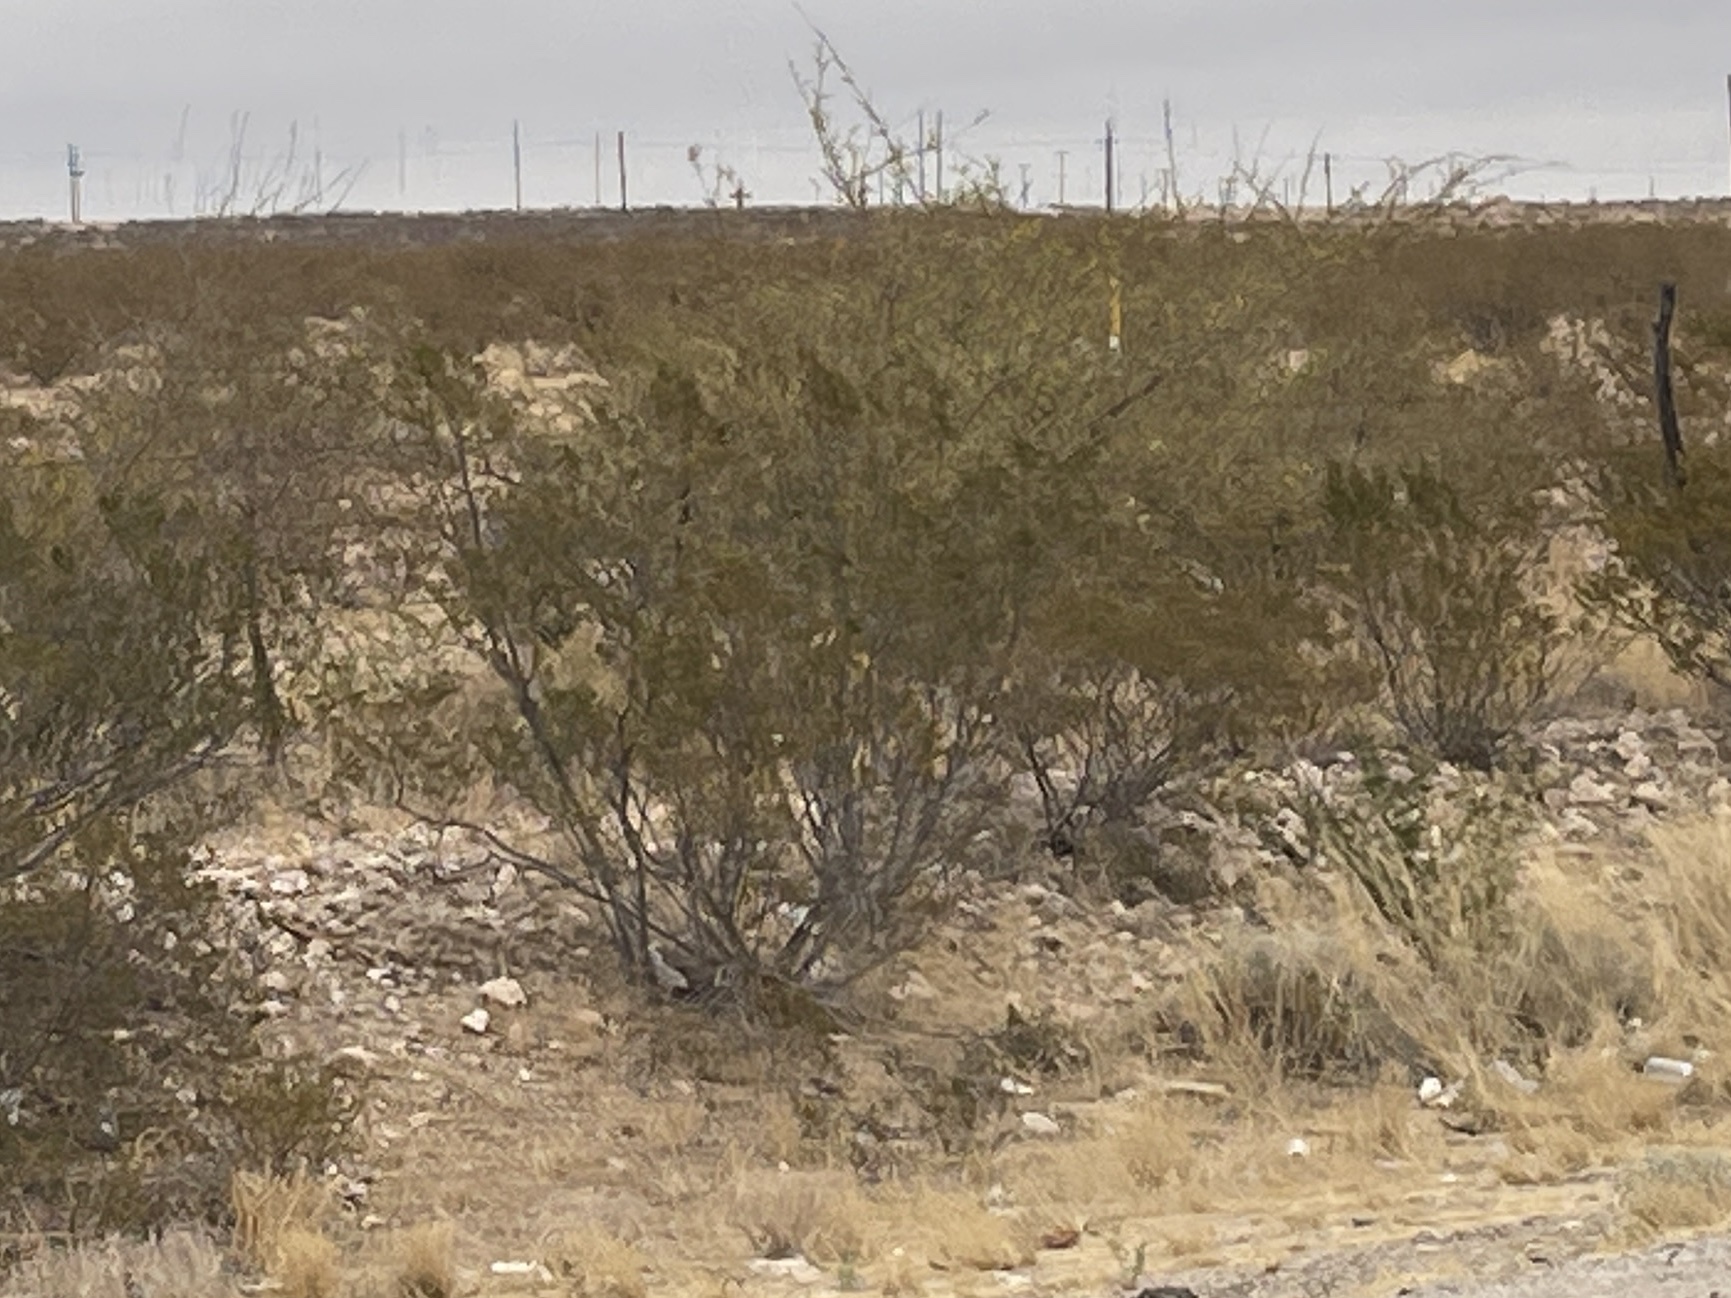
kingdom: Plantae
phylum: Tracheophyta
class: Magnoliopsida
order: Zygophyllales
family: Zygophyllaceae
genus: Larrea
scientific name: Larrea tridentata
